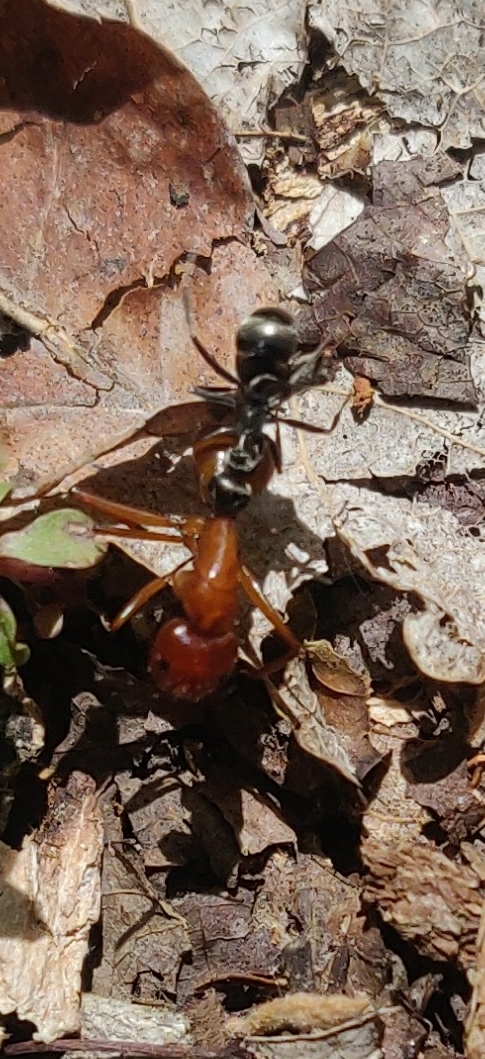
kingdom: Animalia
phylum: Arthropoda
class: Insecta
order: Hymenoptera
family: Formicidae
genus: Camponotus
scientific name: Camponotus castaneus
